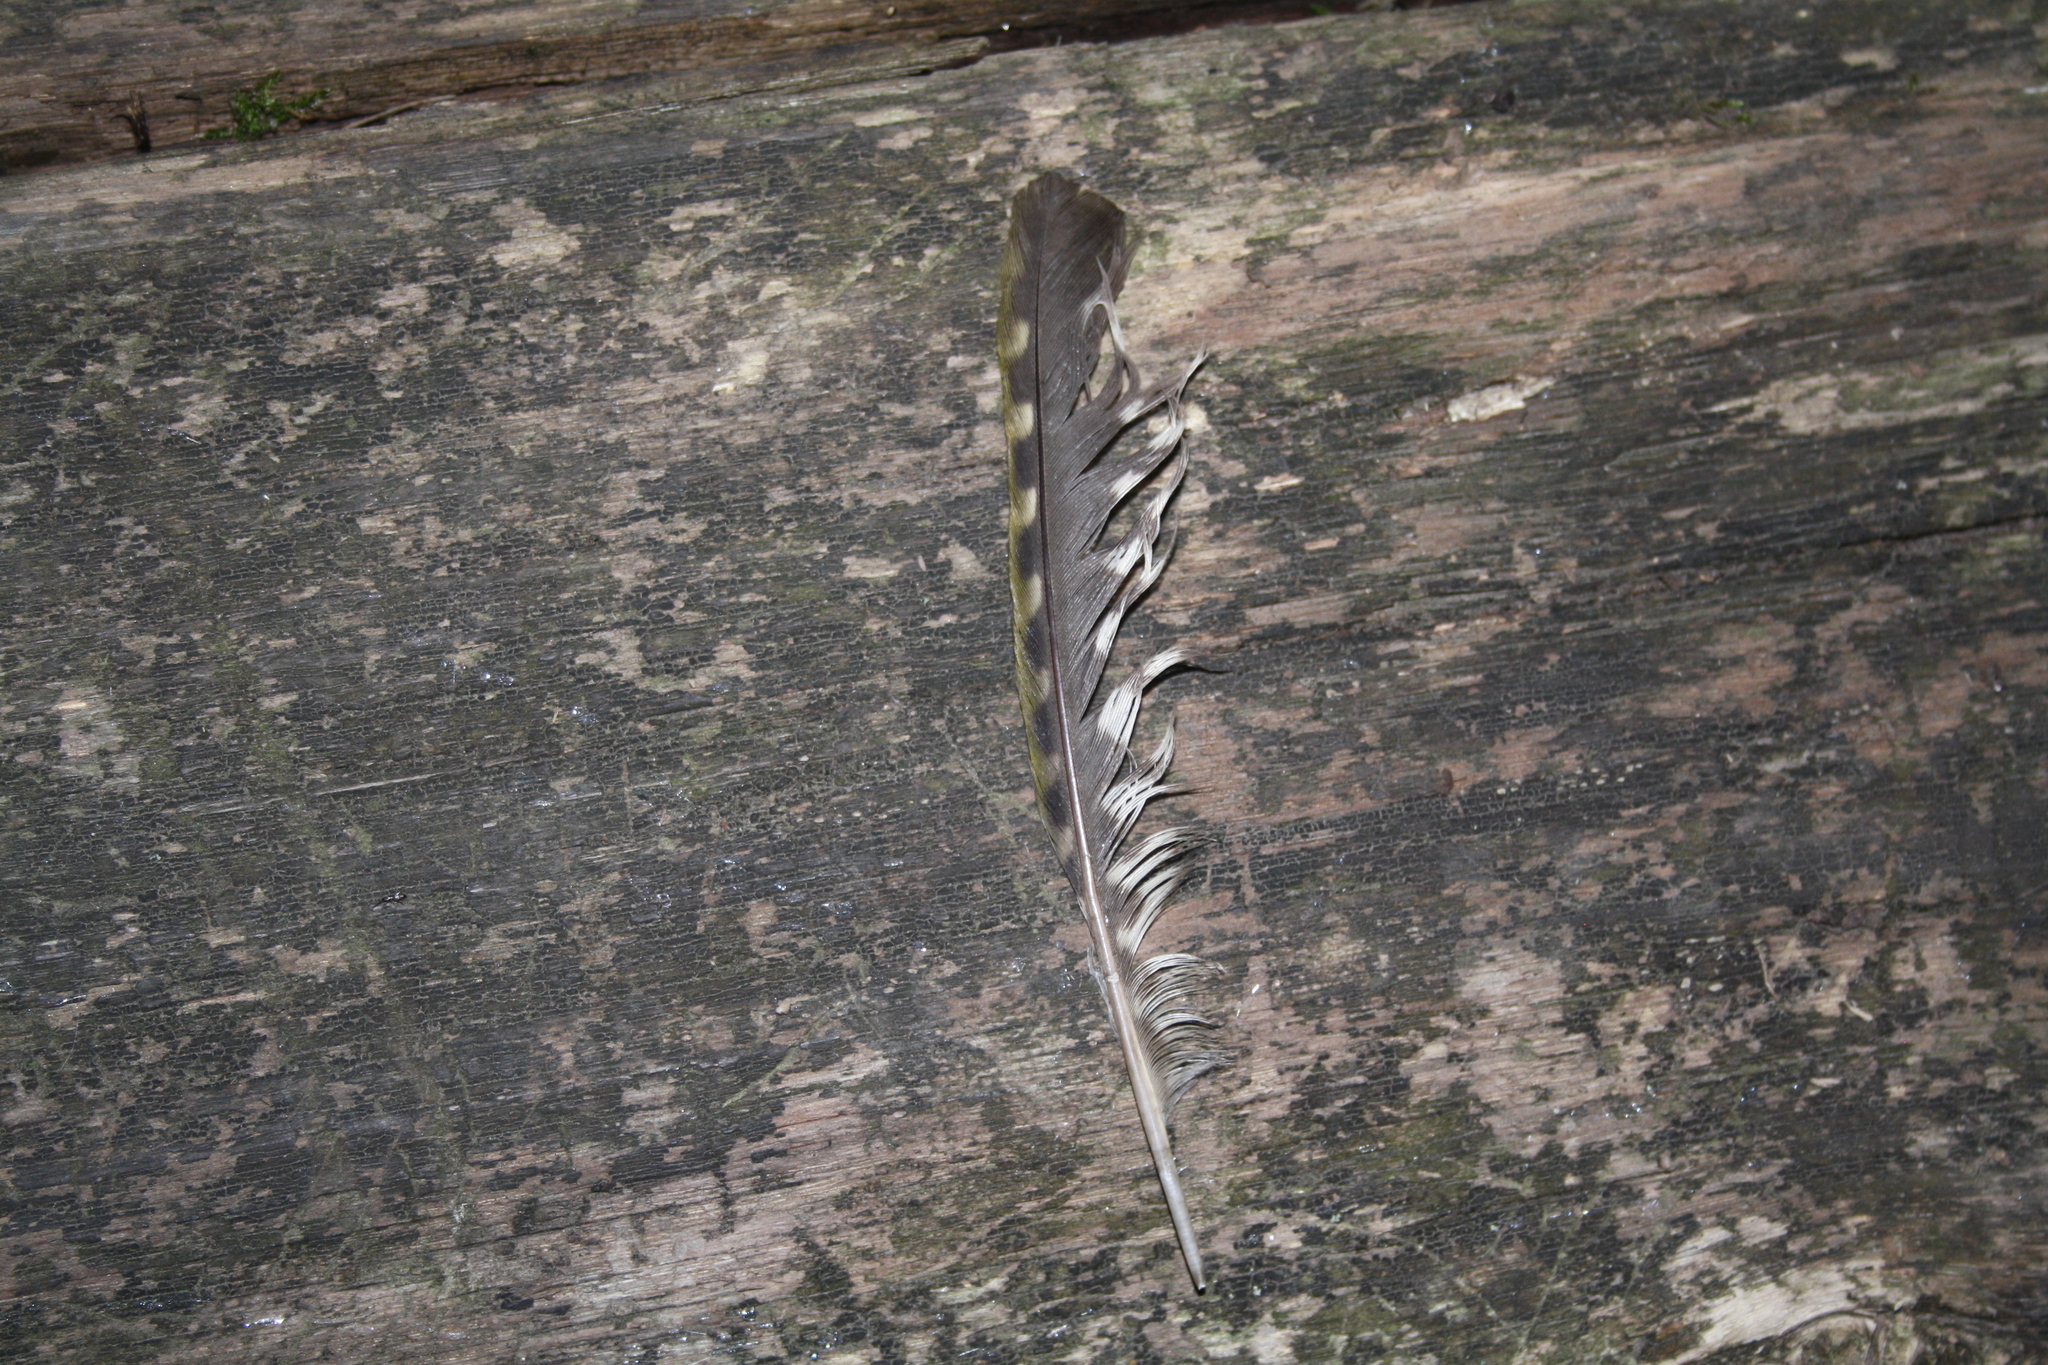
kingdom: Animalia
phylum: Chordata
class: Aves
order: Piciformes
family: Picidae
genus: Picus
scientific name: Picus viridis
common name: European green woodpecker
